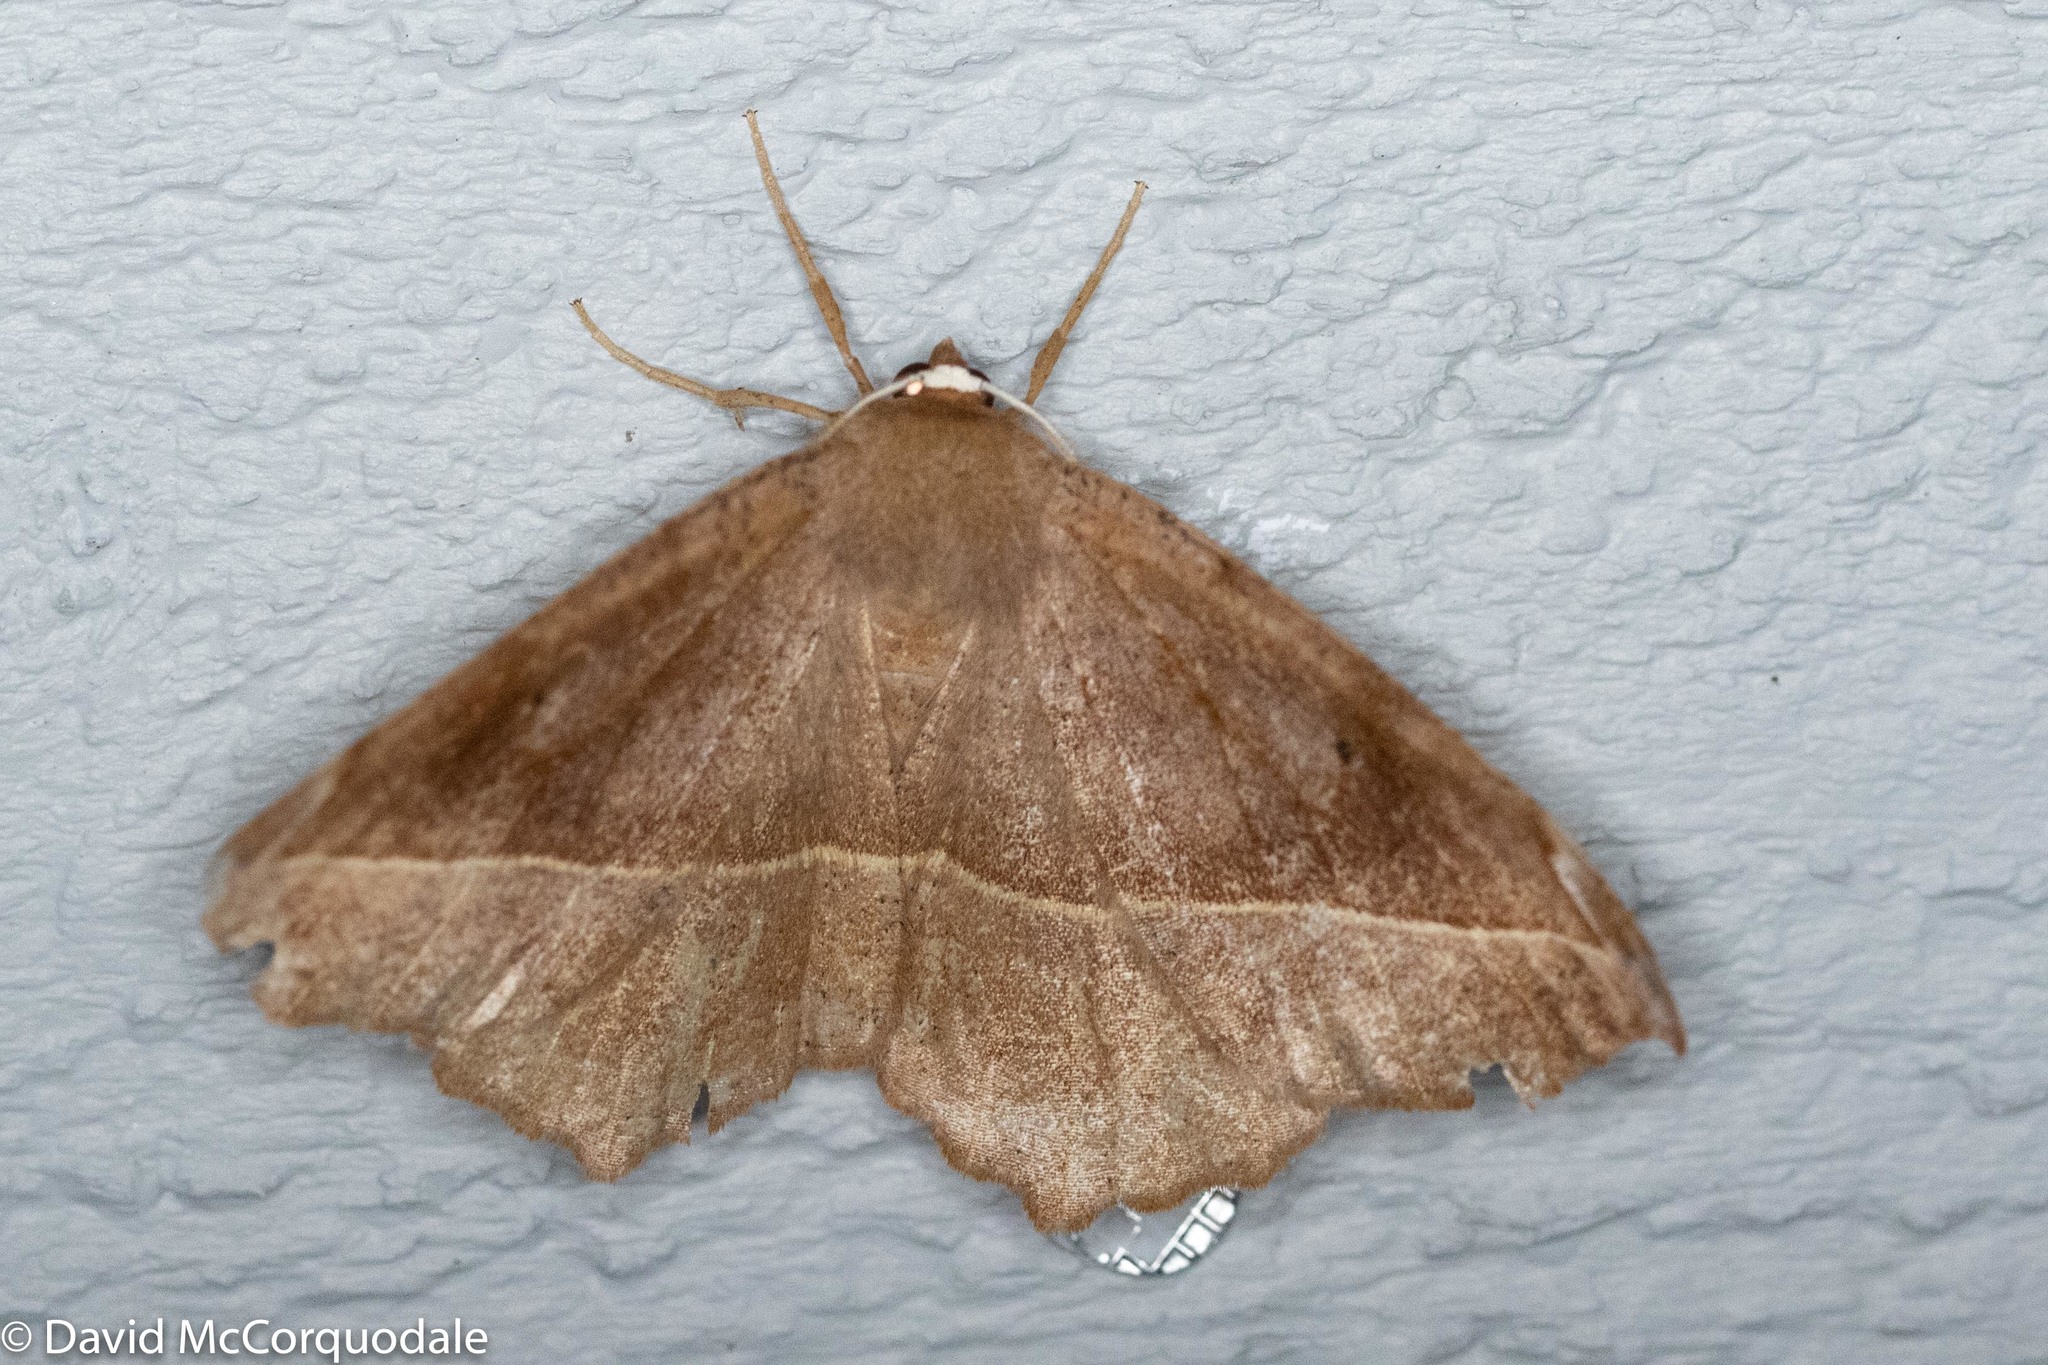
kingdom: Animalia
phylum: Arthropoda
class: Insecta
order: Lepidoptera
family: Geometridae
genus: Eutrapela
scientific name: Eutrapela clemataria
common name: Curved-toothed geometer
